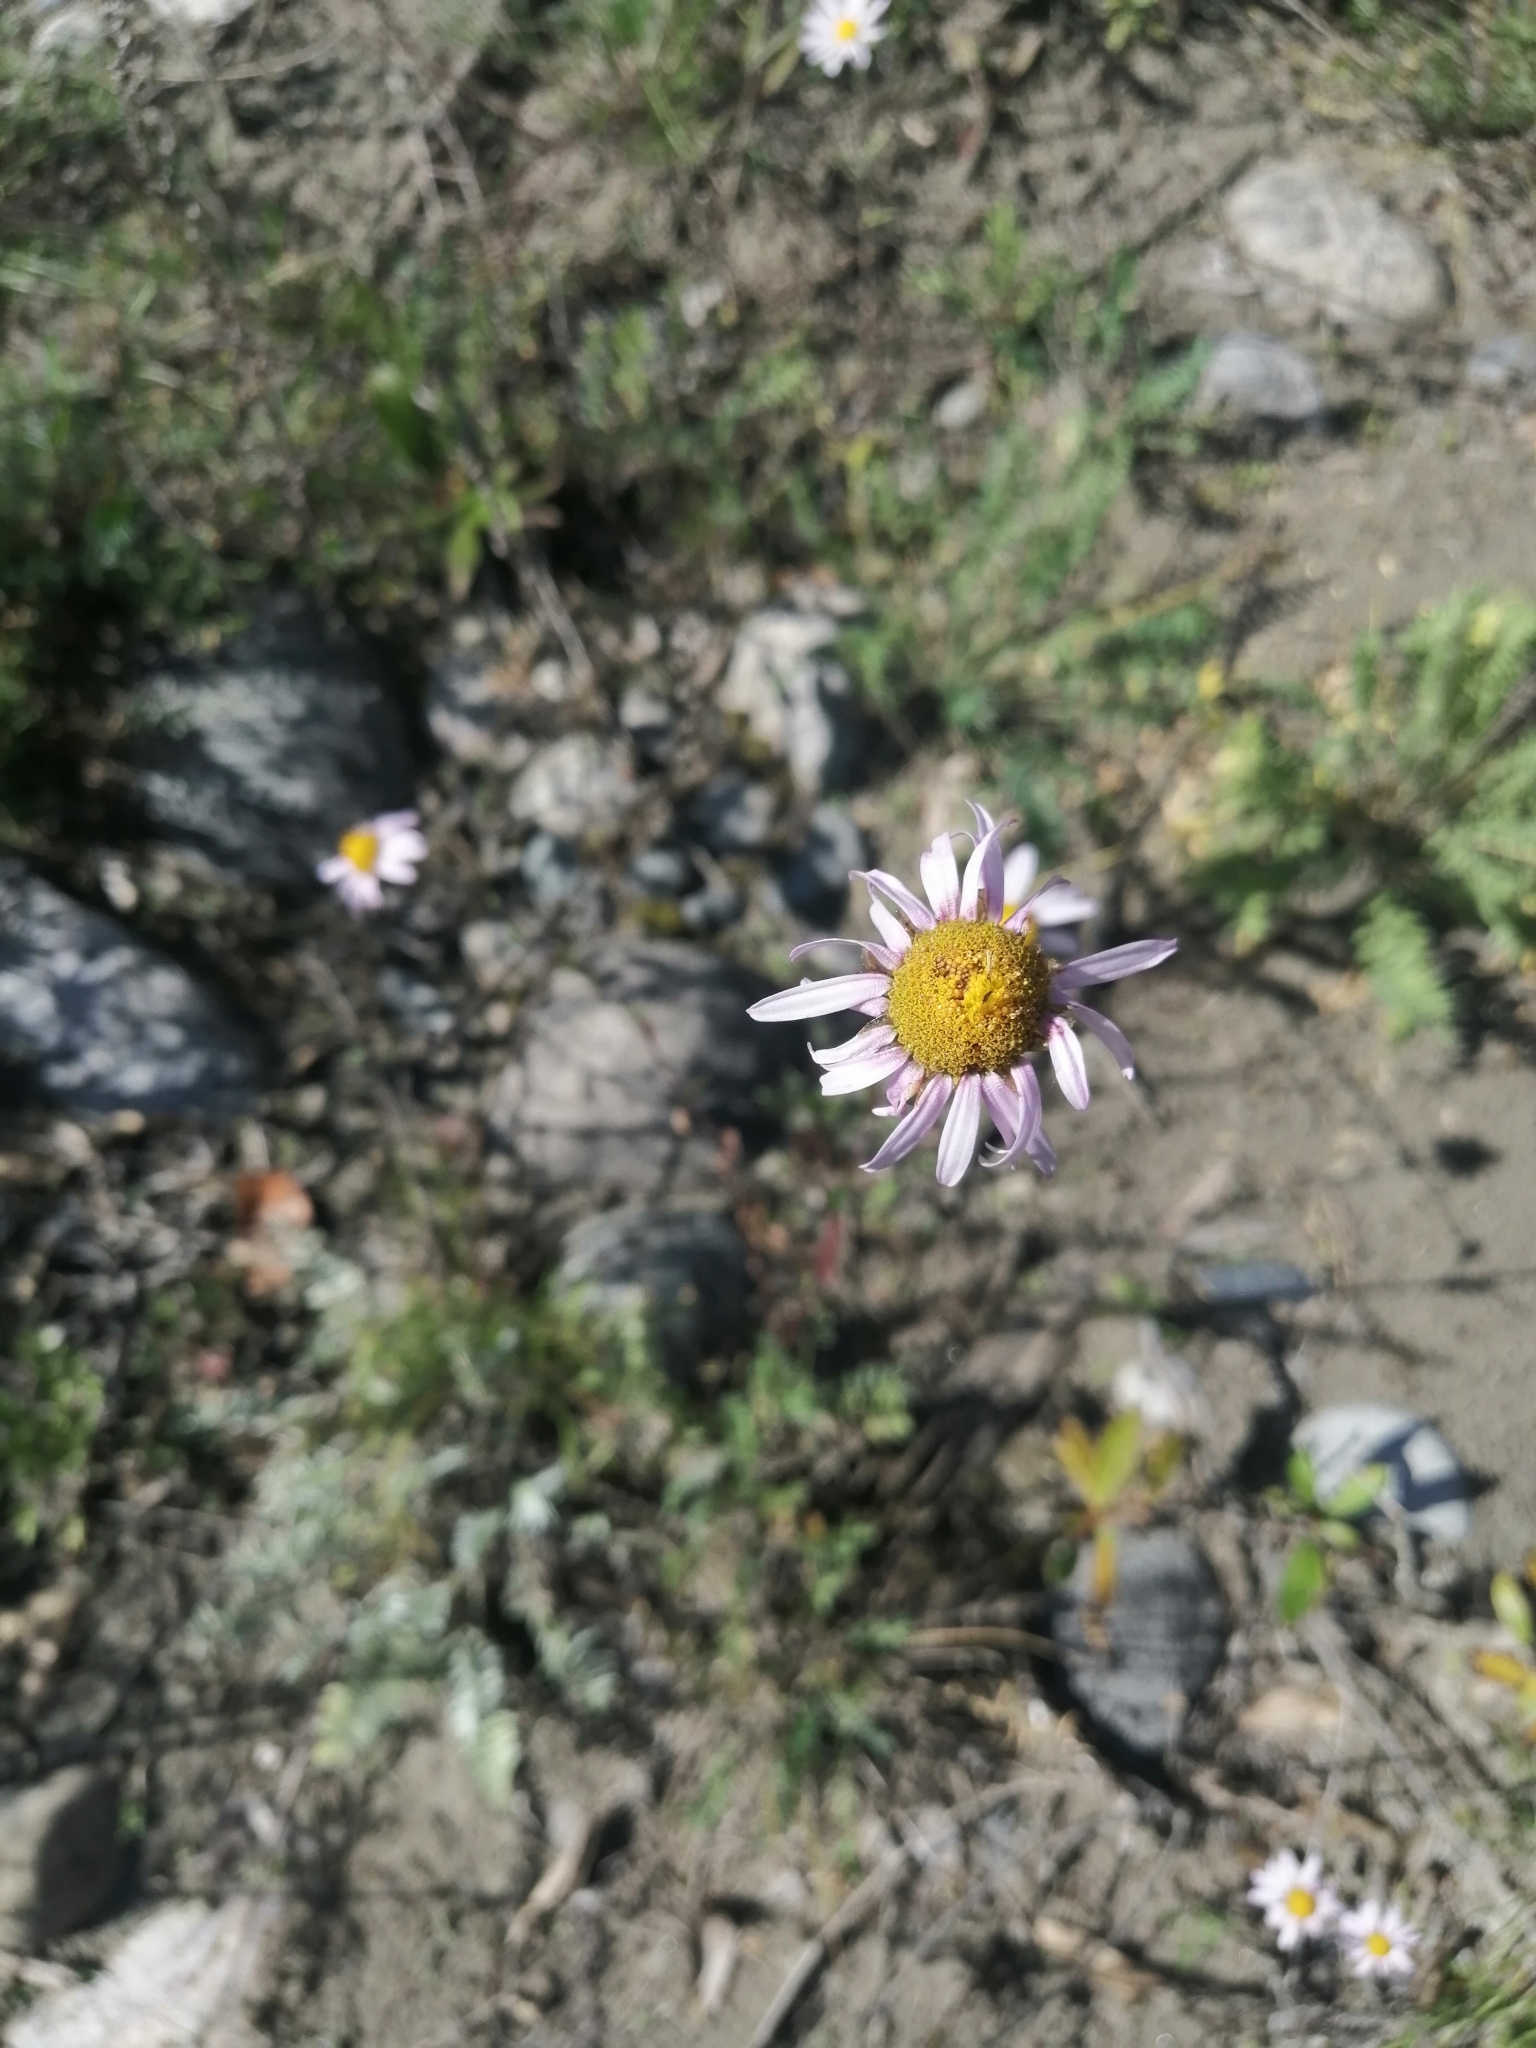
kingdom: Plantae
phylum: Tracheophyta
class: Magnoliopsida
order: Asterales
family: Asteraceae
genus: Chrysanthemum
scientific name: Chrysanthemum zawadzkii
